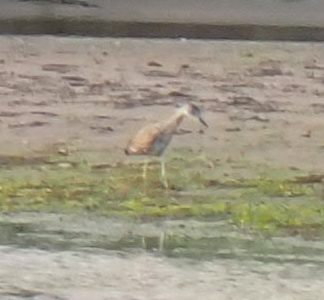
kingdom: Animalia
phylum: Chordata
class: Aves
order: Pelecaniformes
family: Ardeidae
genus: Nyctanassa
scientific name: Nyctanassa violacea
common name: Yellow-crowned night heron
